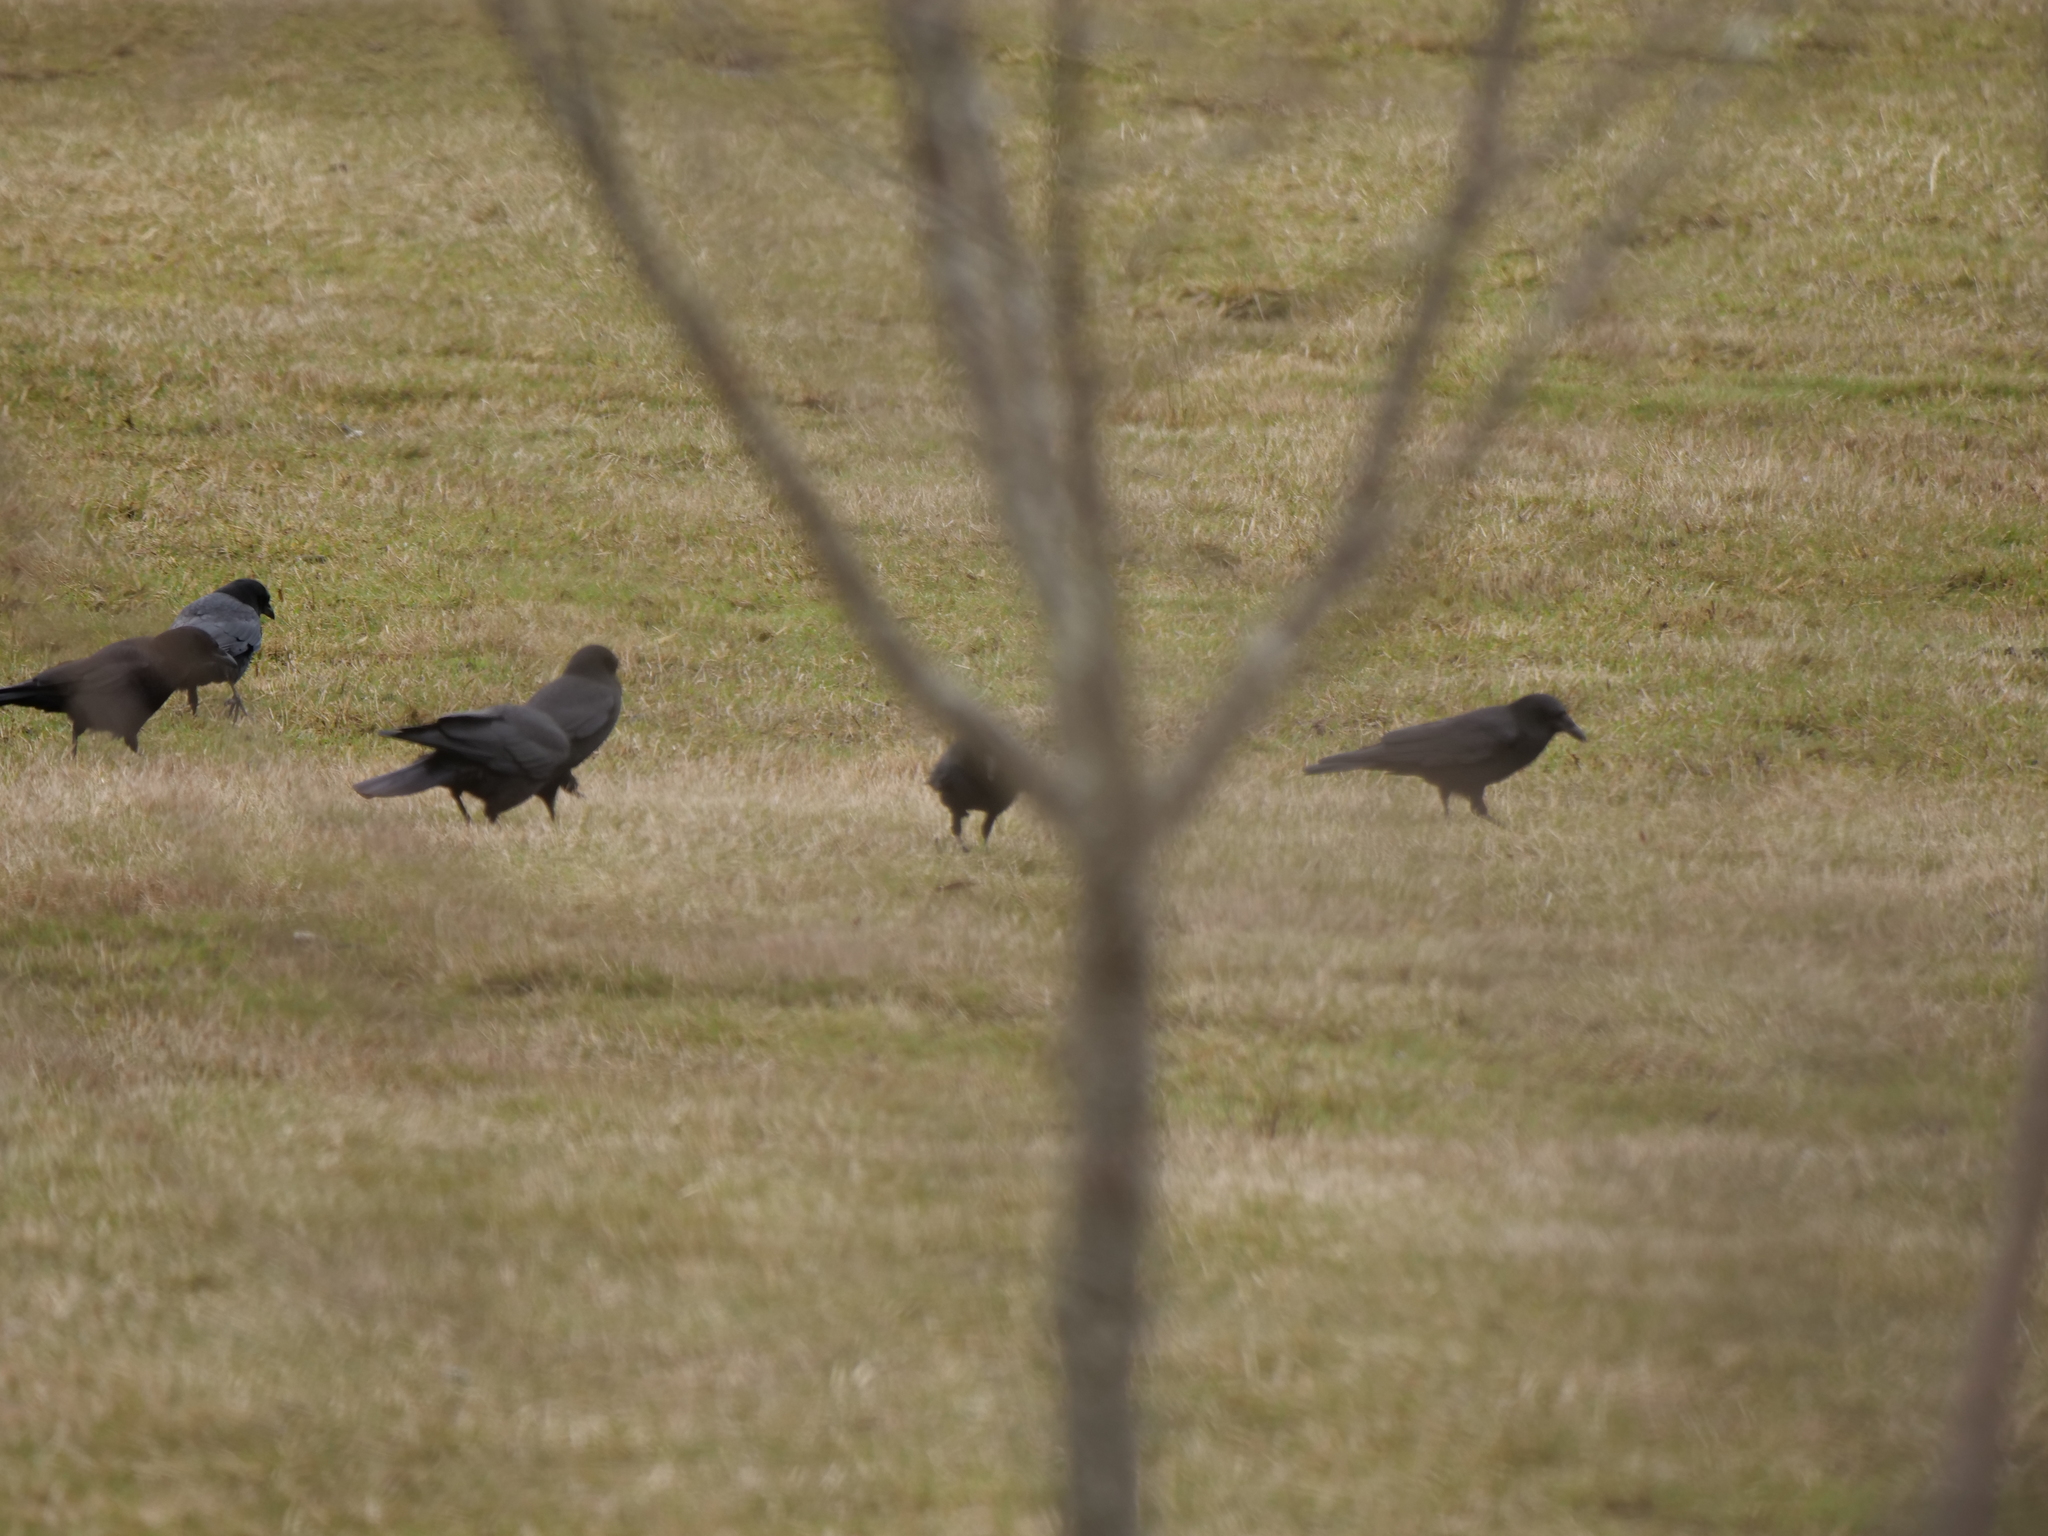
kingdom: Animalia
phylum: Chordata
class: Aves
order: Passeriformes
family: Corvidae
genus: Corvus
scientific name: Corvus brachyrhynchos
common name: American crow
